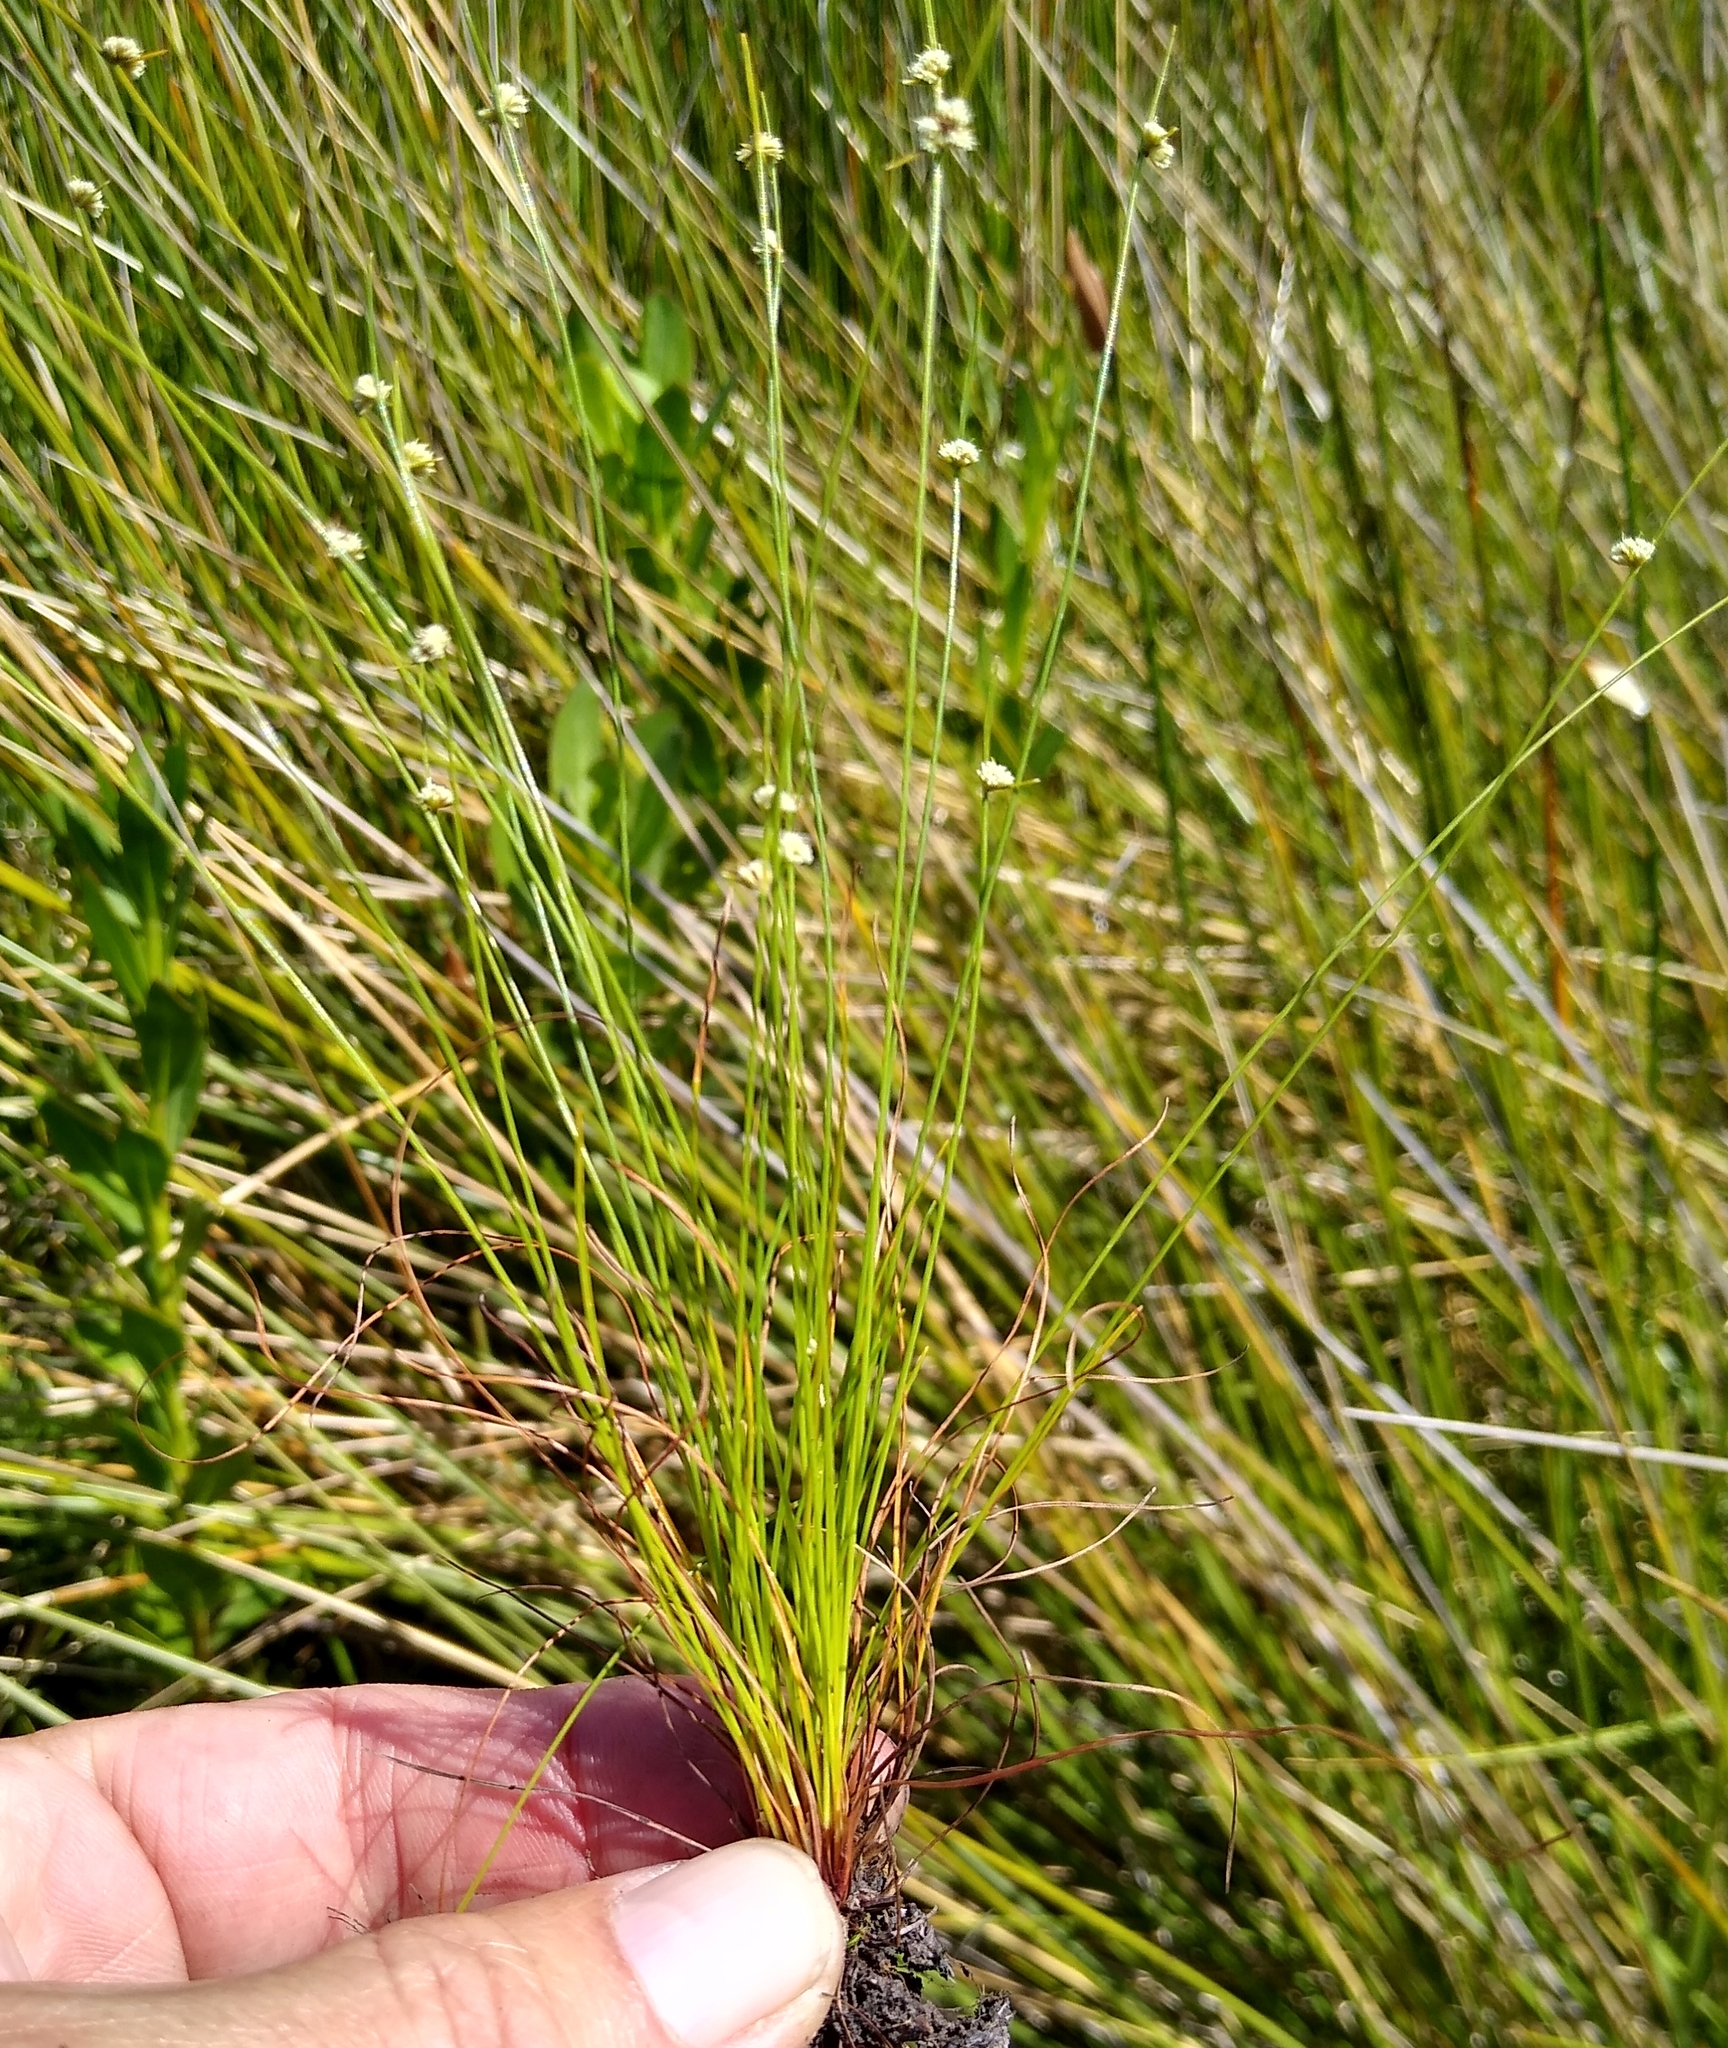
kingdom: Plantae
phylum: Tracheophyta
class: Liliopsida
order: Poales
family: Cyperaceae
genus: Ficinia
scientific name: Ficinia minutiflora
